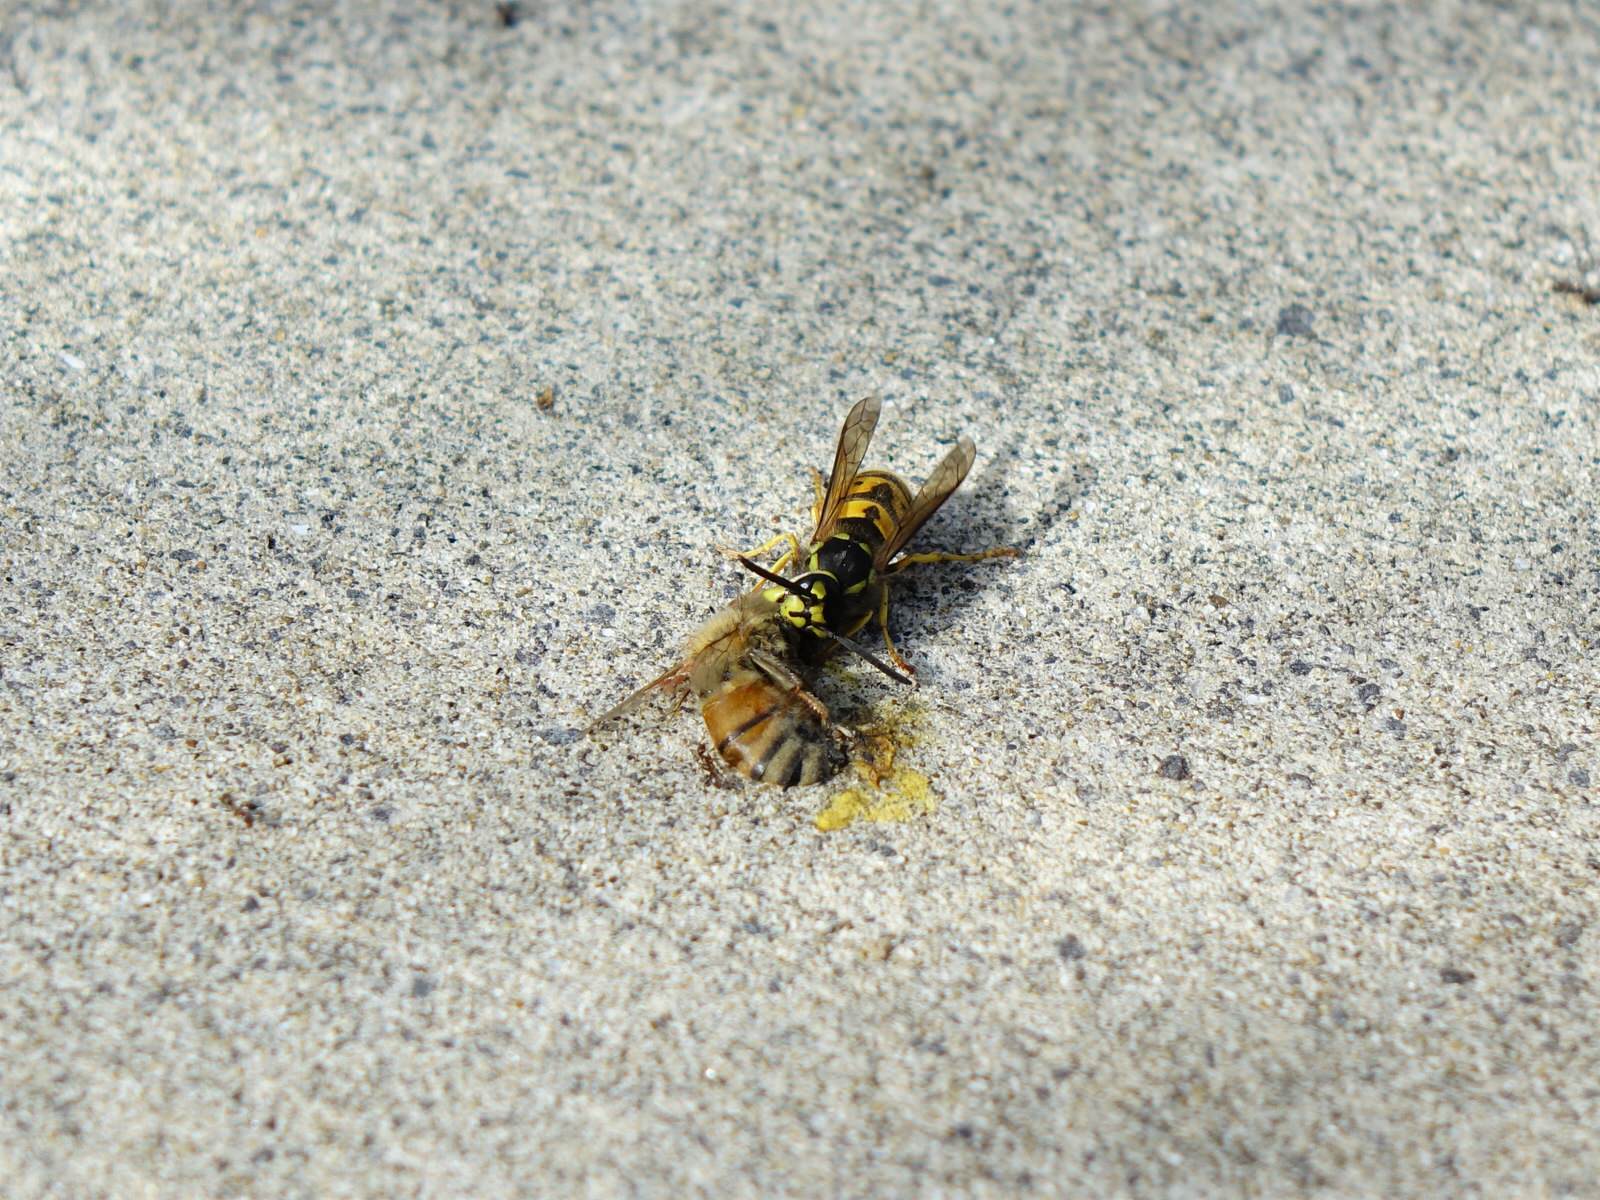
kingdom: Animalia
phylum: Arthropoda
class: Insecta
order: Hymenoptera
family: Vespidae
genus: Vespula
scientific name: Vespula germanica
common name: German wasp
